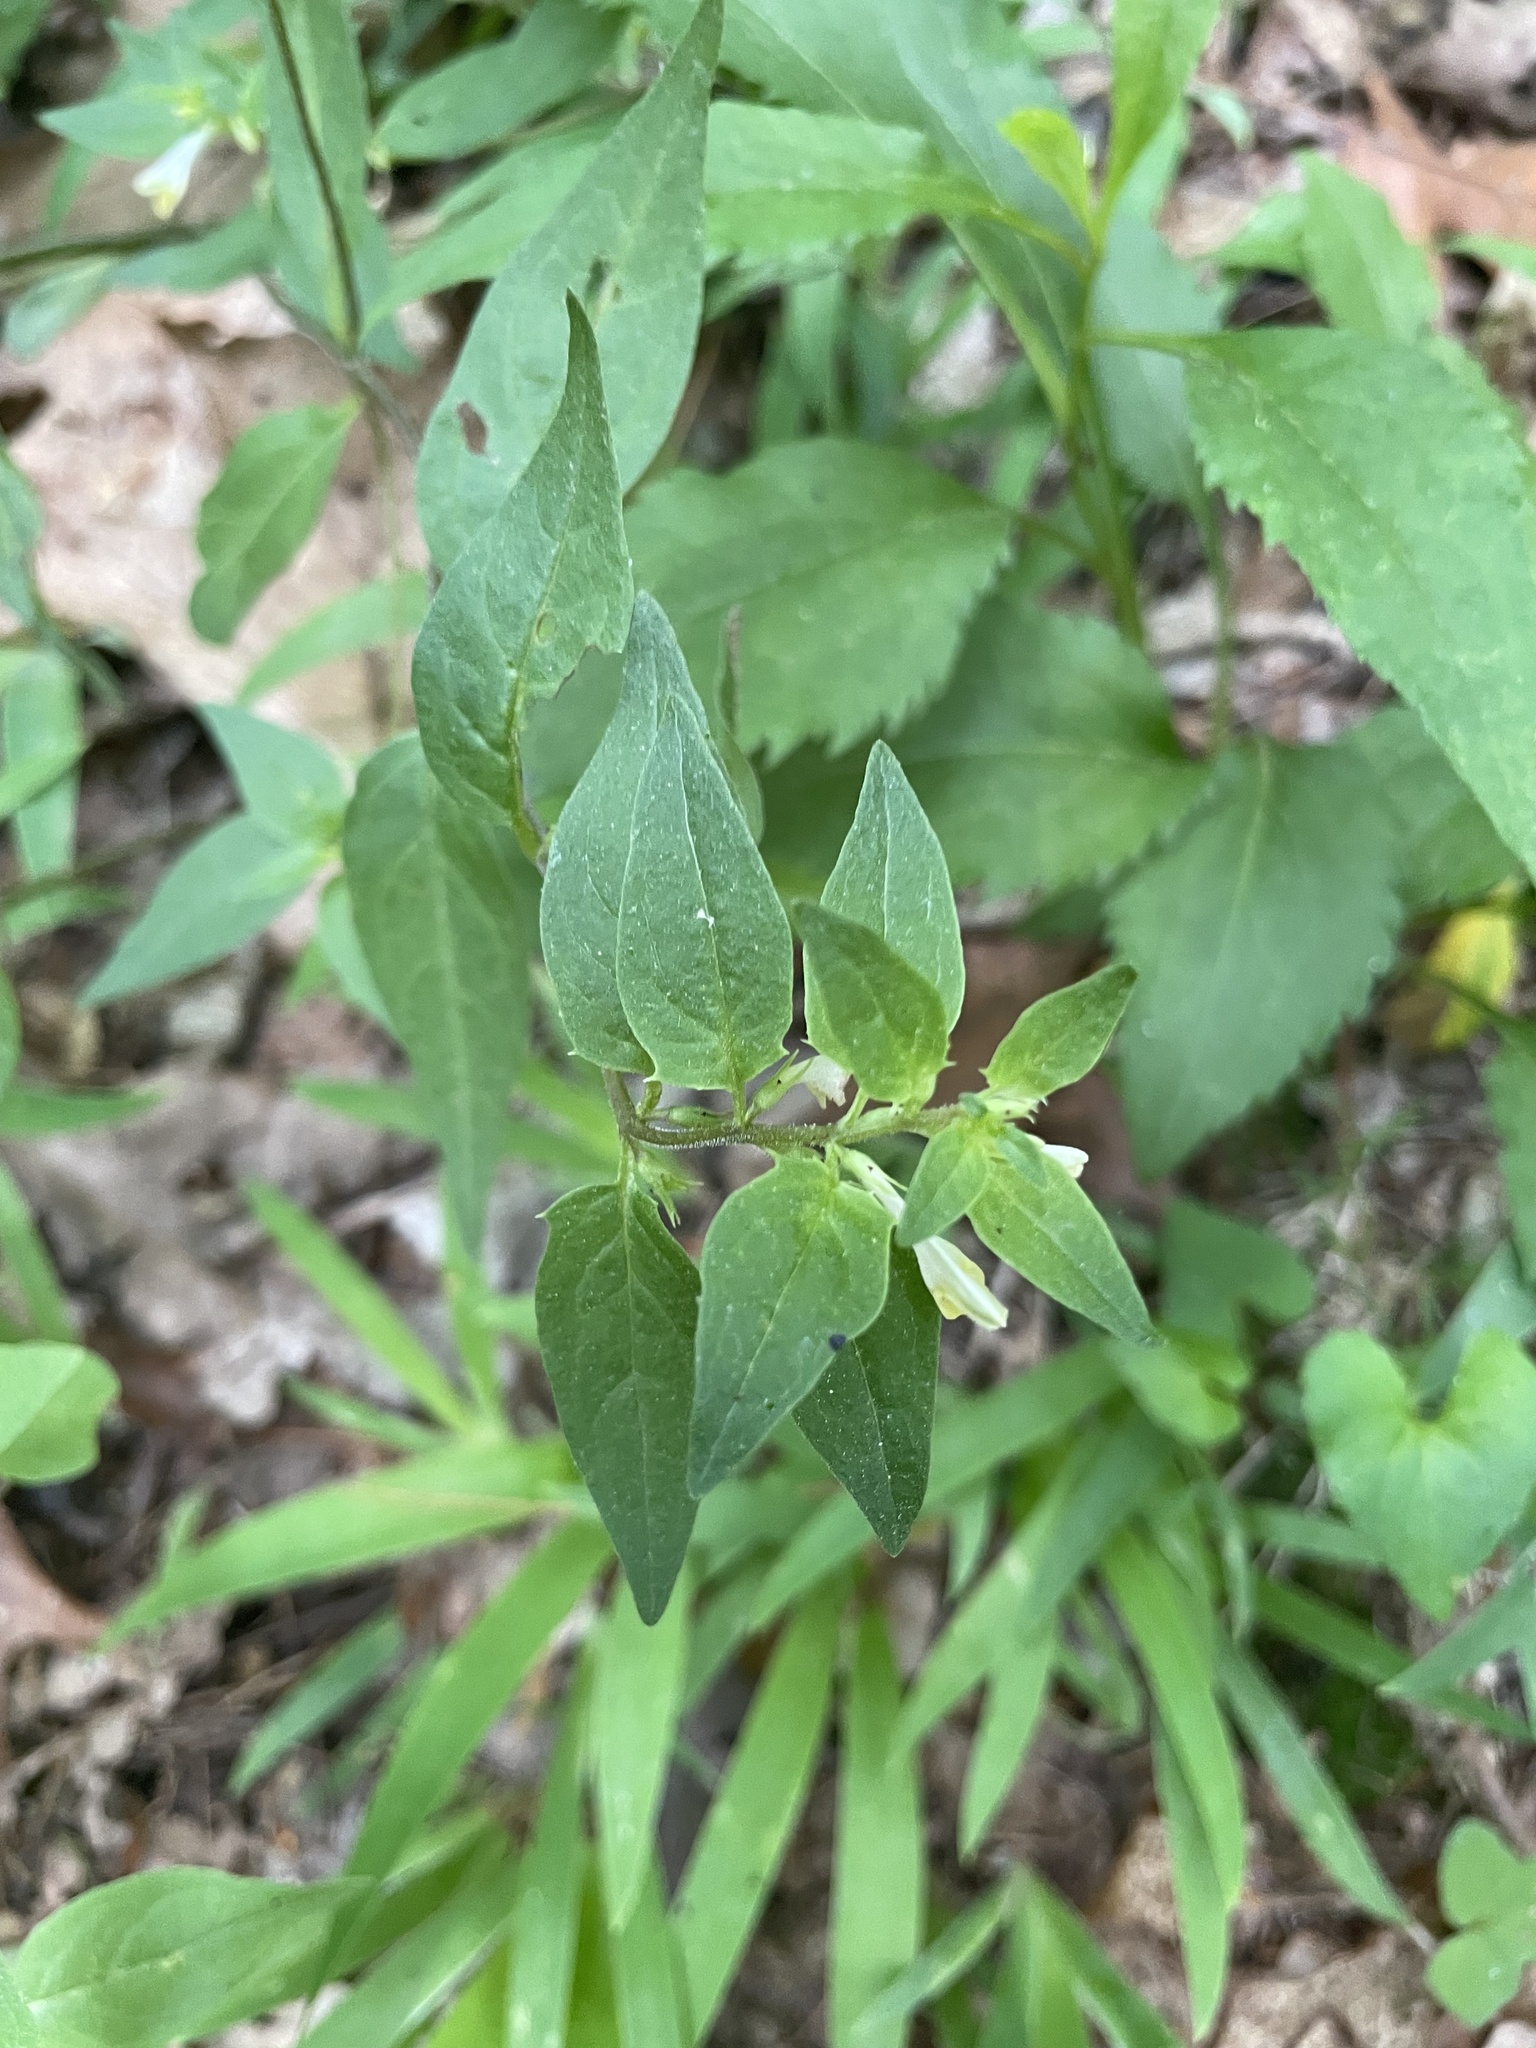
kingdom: Plantae
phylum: Tracheophyta
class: Magnoliopsida
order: Lamiales
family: Orobanchaceae
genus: Melampyrum
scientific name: Melampyrum lineare
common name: American cow-wheat
